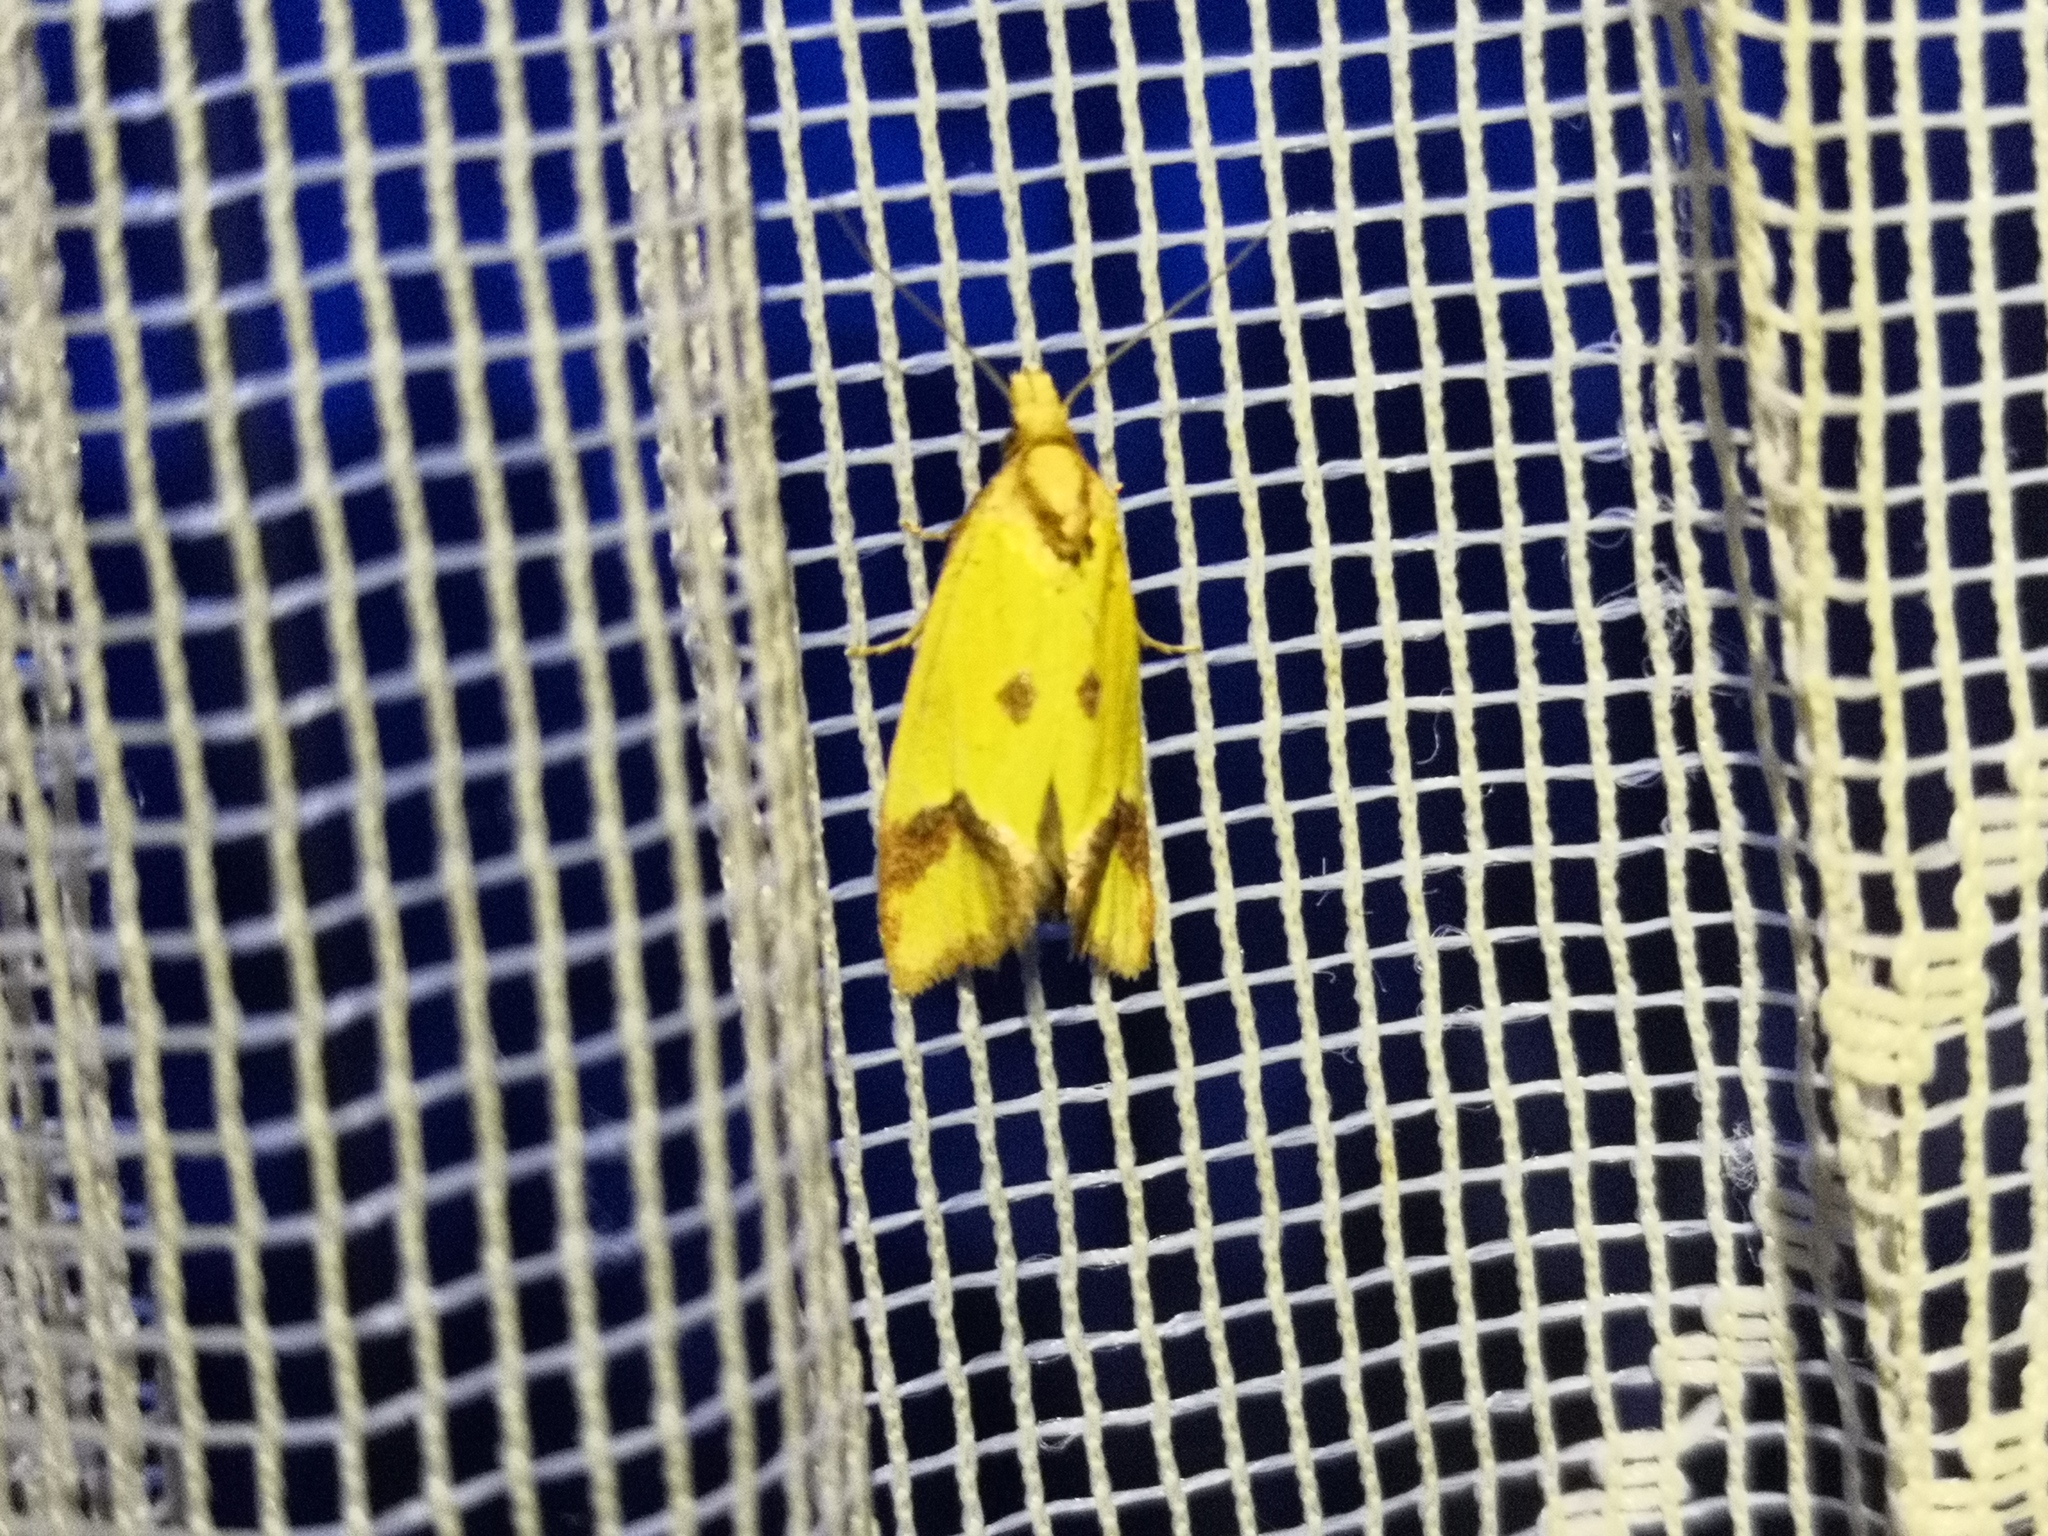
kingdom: Animalia
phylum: Arthropoda
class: Insecta
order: Lepidoptera
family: Tortricidae
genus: Agapeta
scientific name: Agapeta zoegana
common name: Sulfur knapweed root moth
